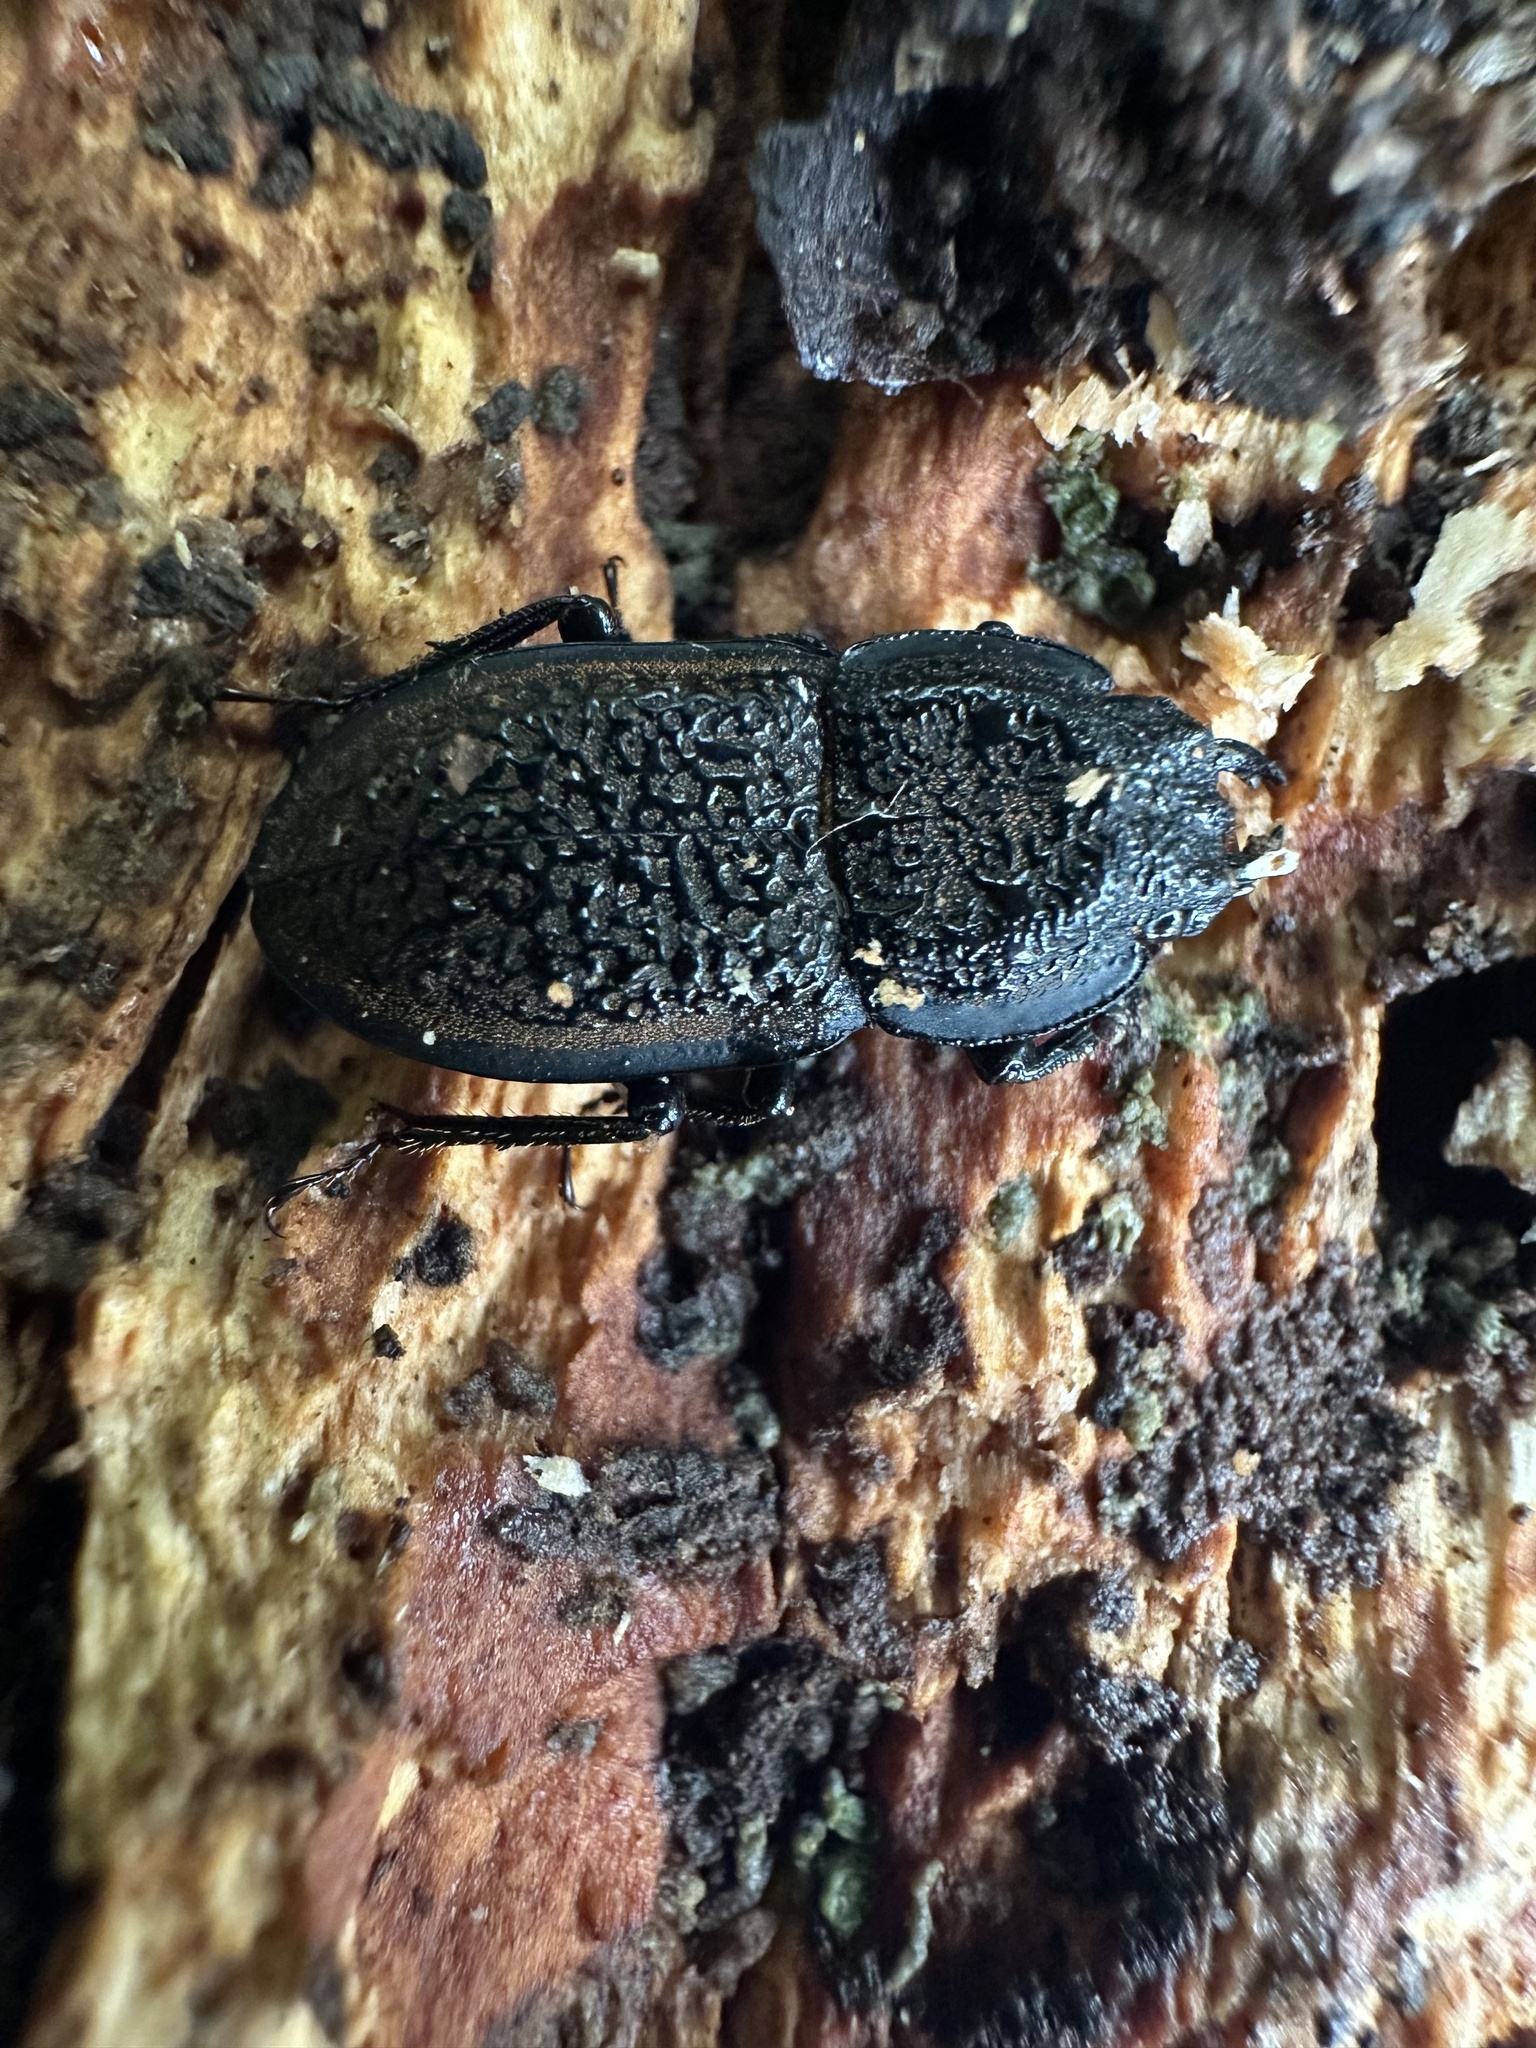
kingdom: Animalia
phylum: Arthropoda
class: Insecta
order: Coleoptera
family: Lucanidae
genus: Erichius
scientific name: Erichius caelatus
